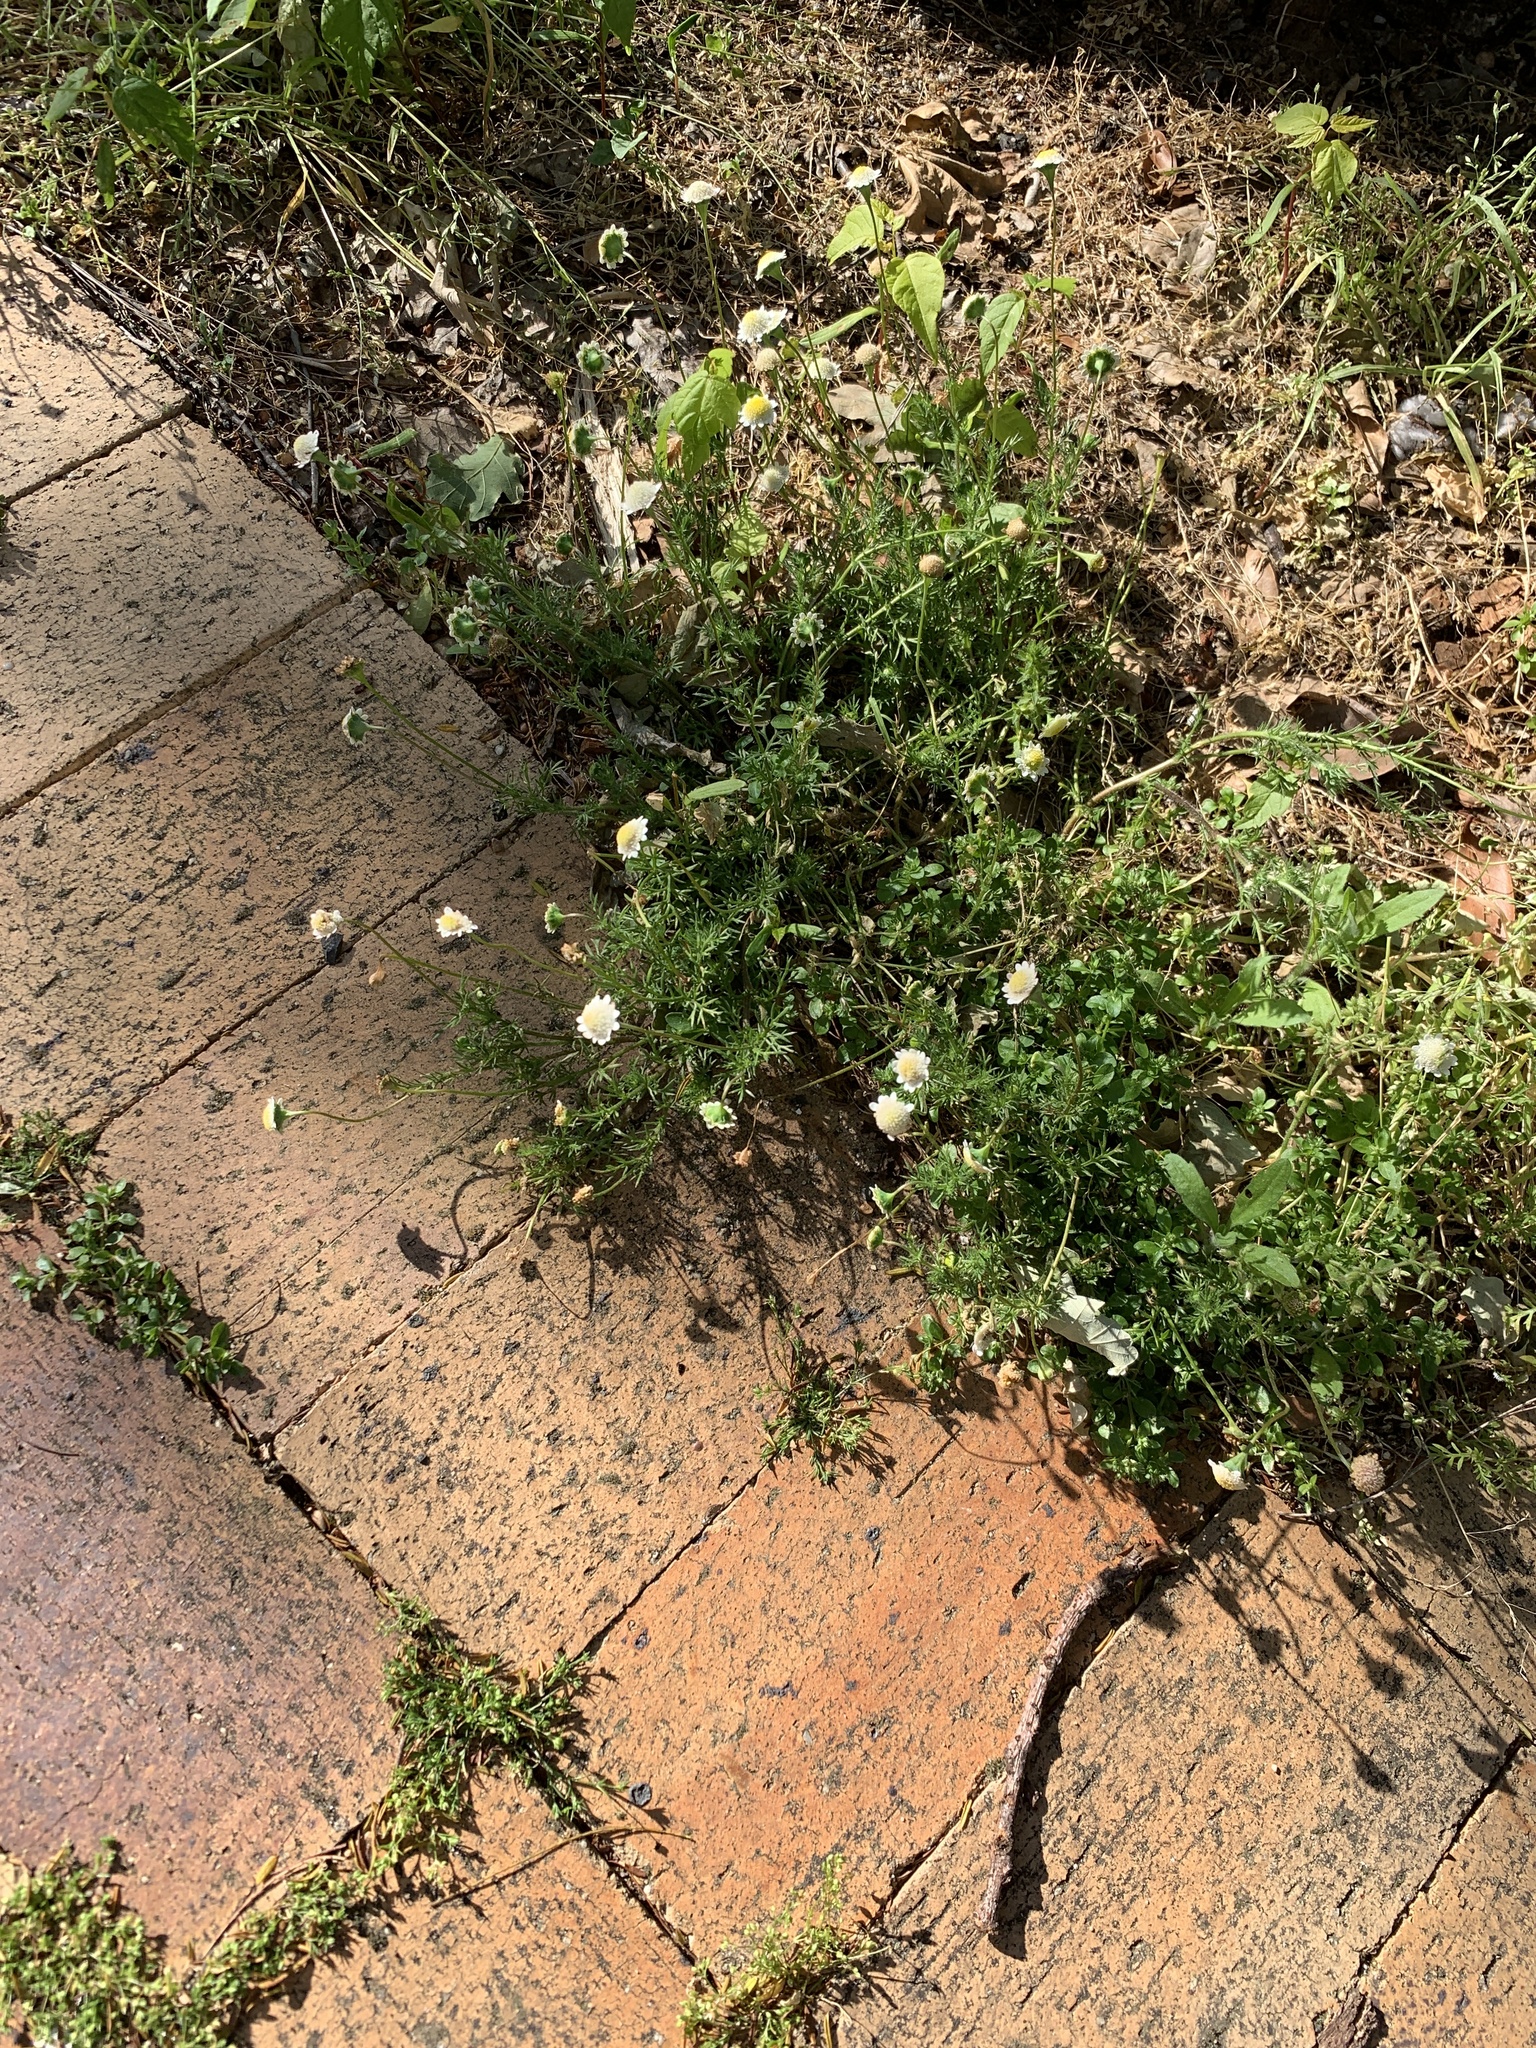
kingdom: Plantae
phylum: Tracheophyta
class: Magnoliopsida
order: Asterales
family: Asteraceae
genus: Cotula
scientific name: Cotula turbinata
